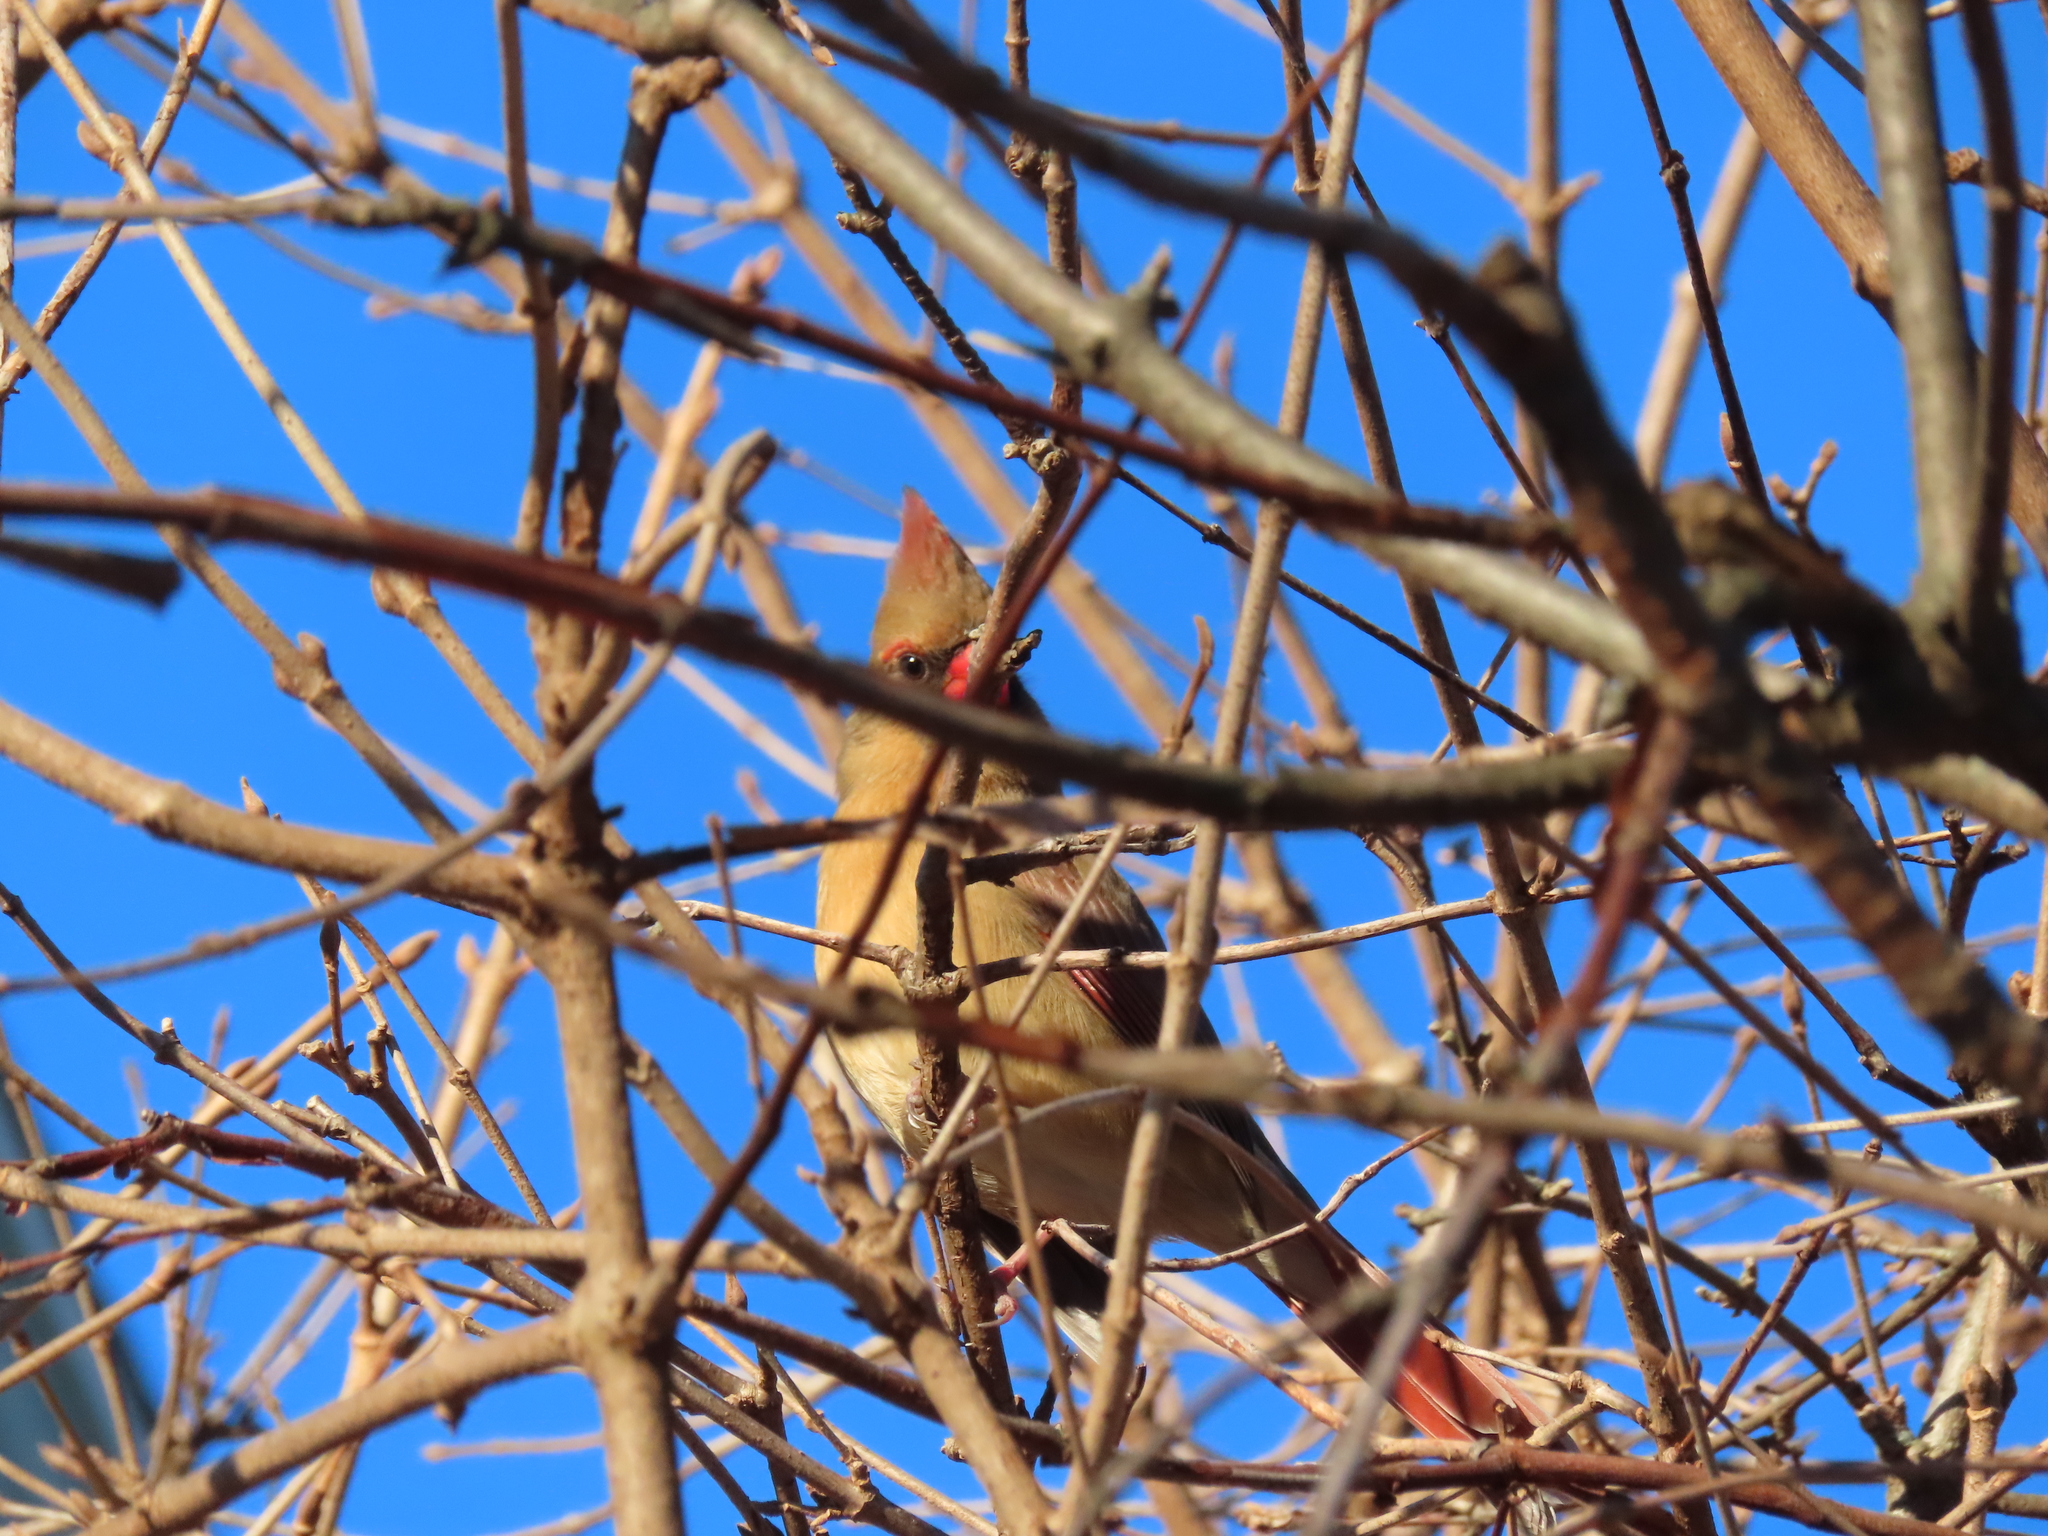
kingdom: Animalia
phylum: Chordata
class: Aves
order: Passeriformes
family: Cardinalidae
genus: Cardinalis
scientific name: Cardinalis cardinalis
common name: Northern cardinal
